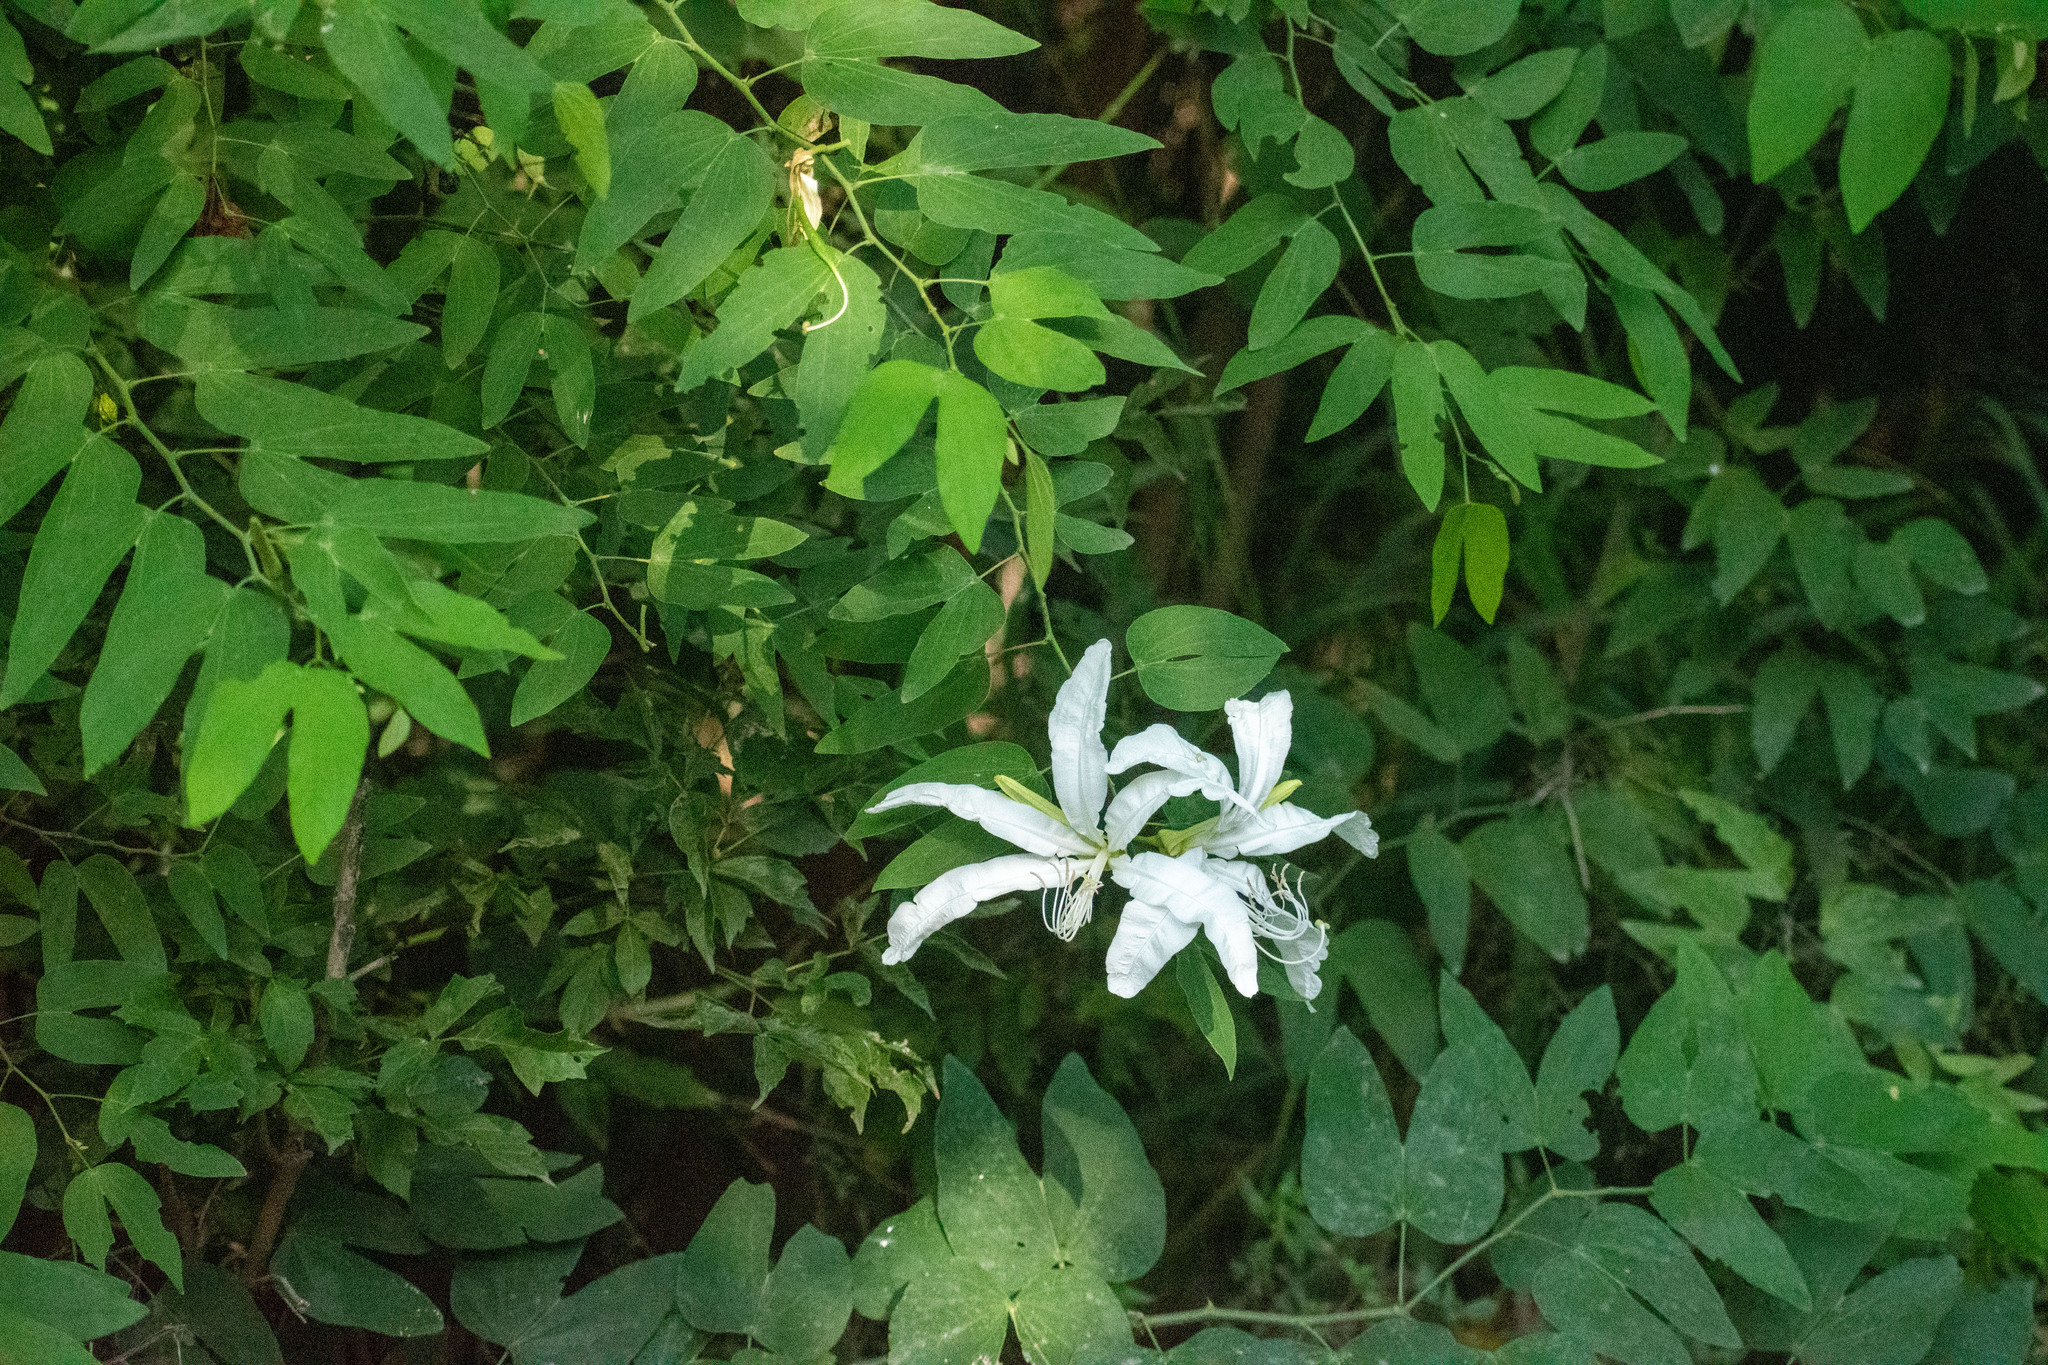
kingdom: Plantae
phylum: Tracheophyta
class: Magnoliopsida
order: Fabales
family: Fabaceae
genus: Bauhinia
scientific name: Bauhinia forficata
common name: Orchid tree
